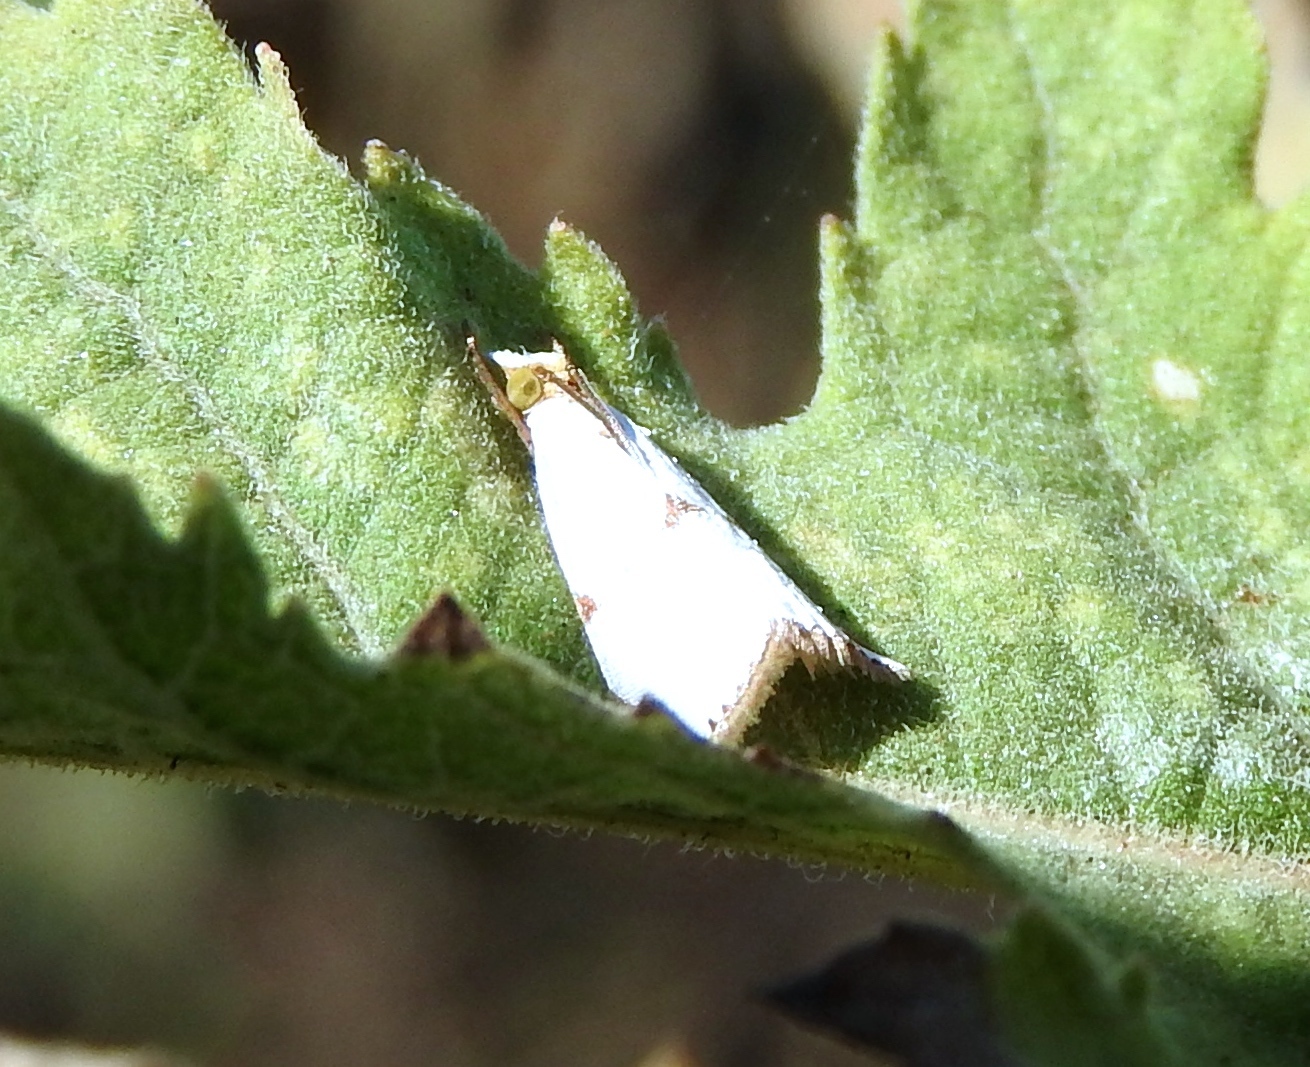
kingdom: Animalia
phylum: Arthropoda
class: Insecta
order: Lepidoptera
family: Crambidae
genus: Argyria
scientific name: Argyria lacteella
